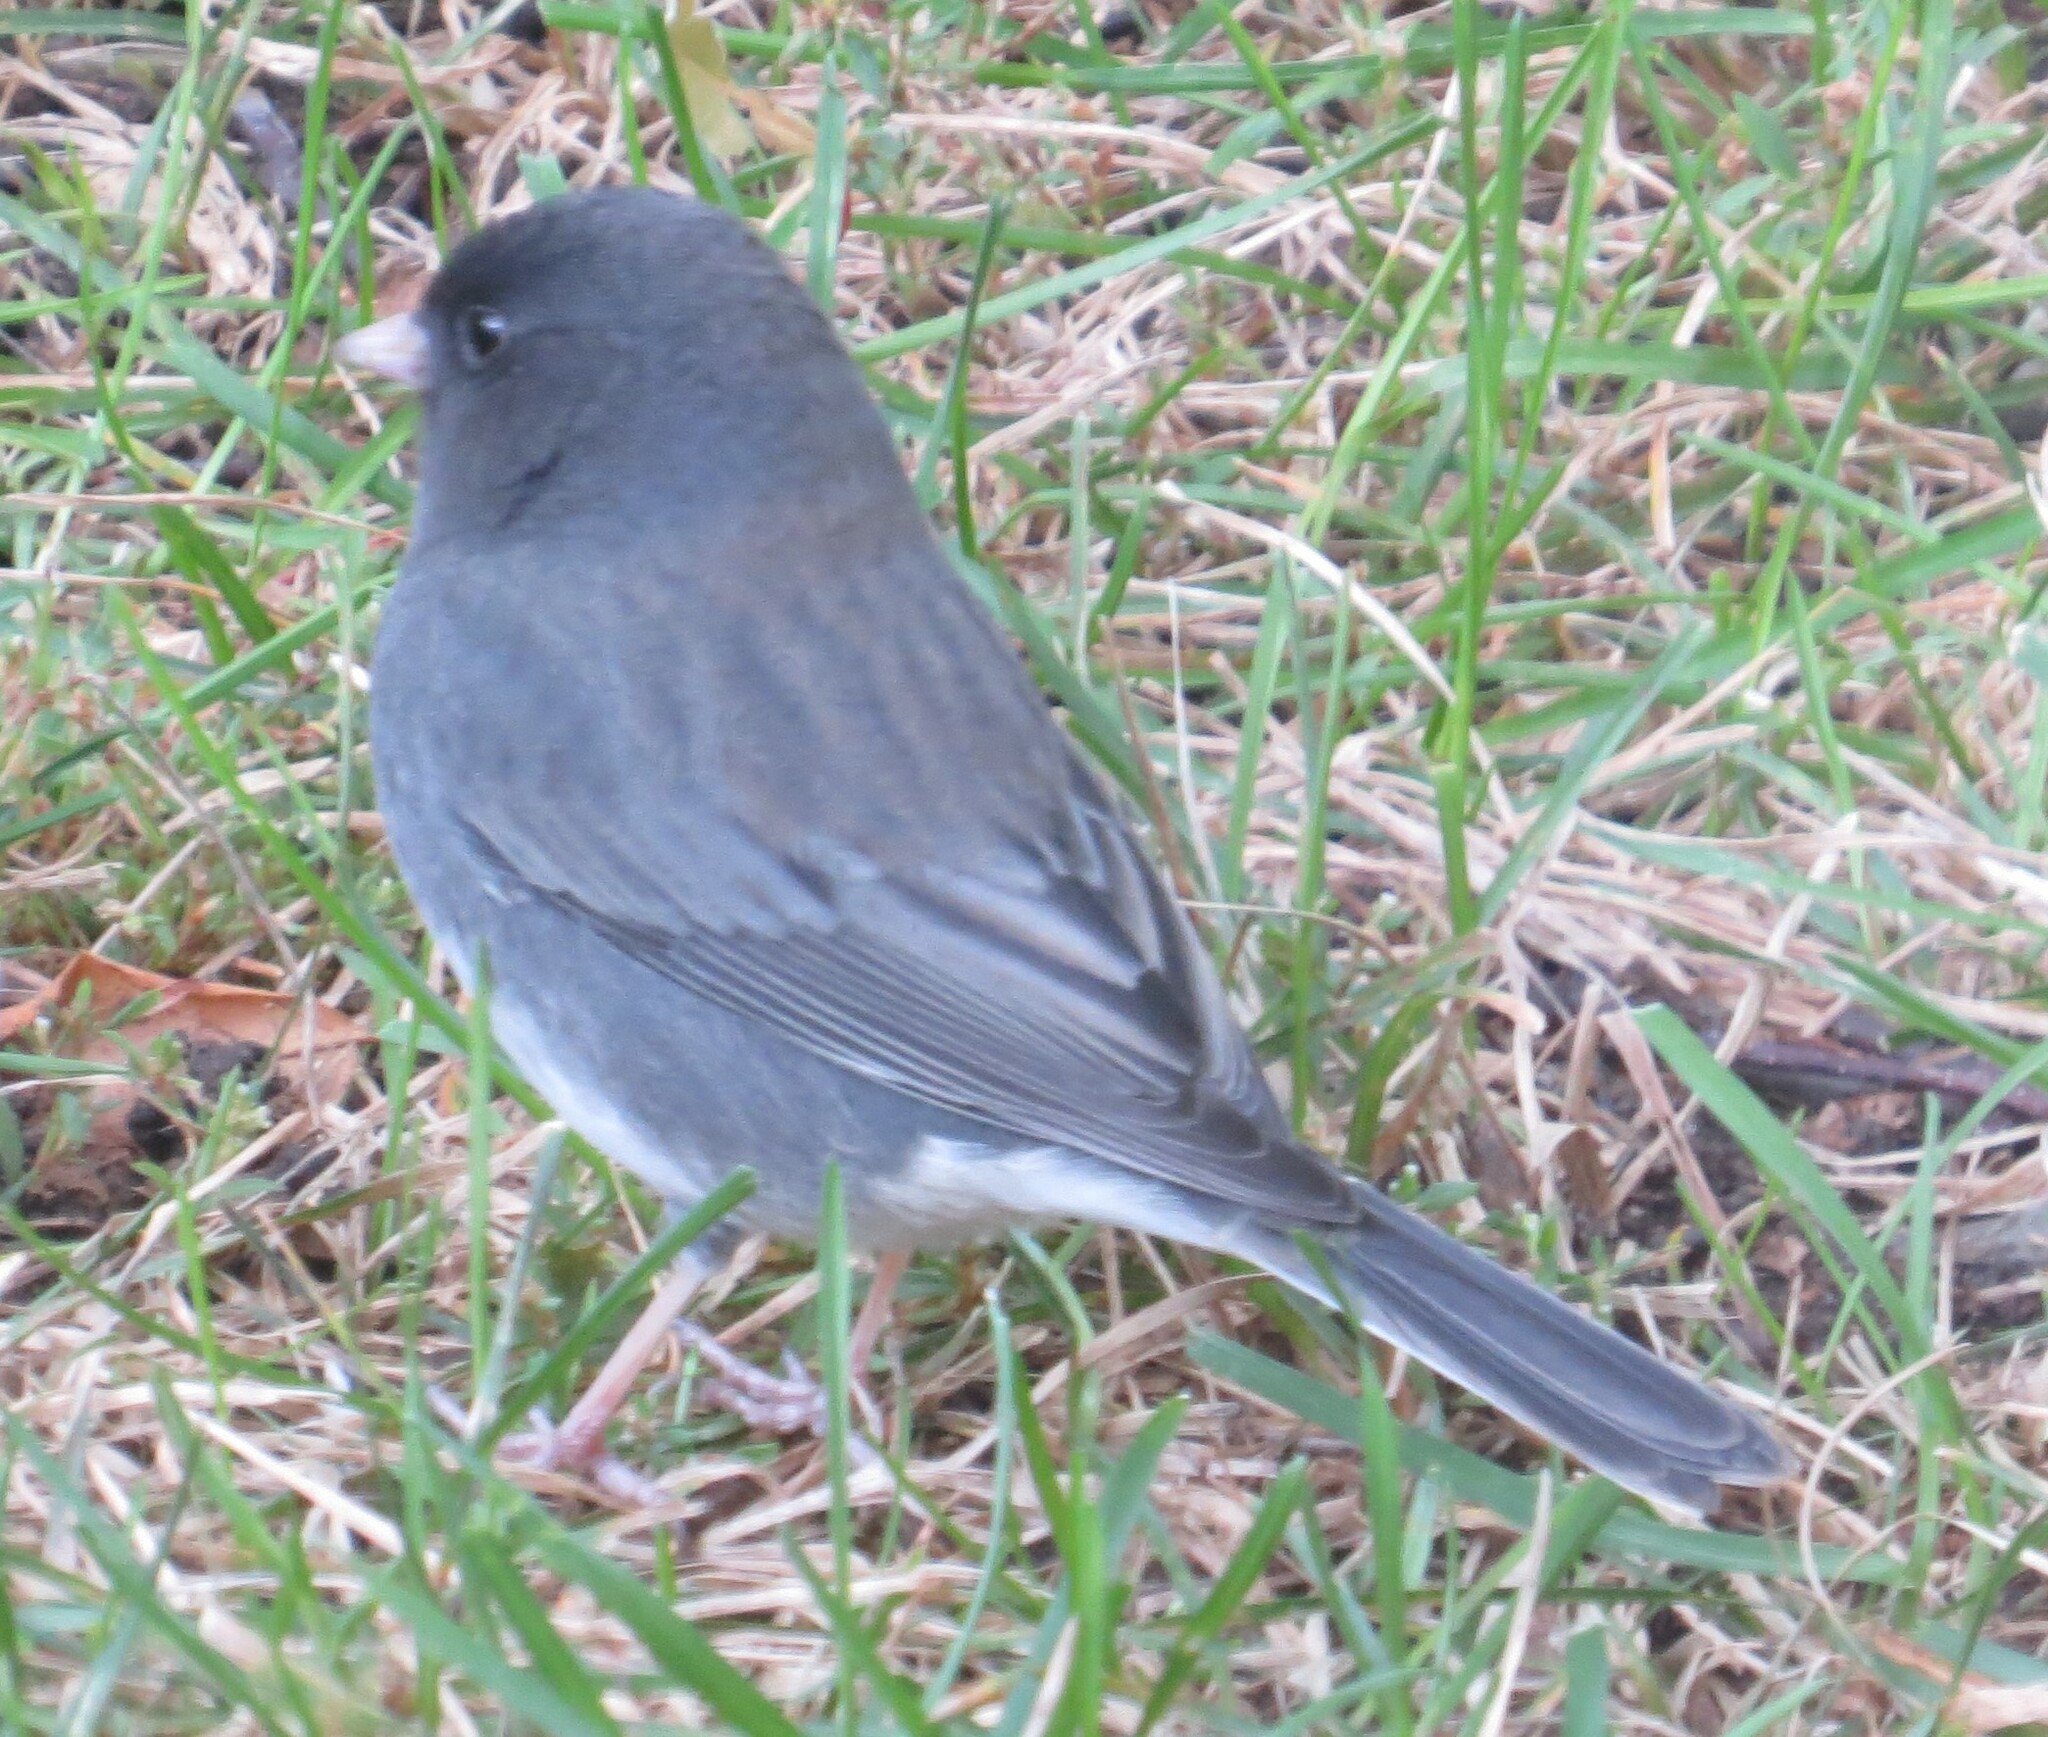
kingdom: Animalia
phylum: Chordata
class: Aves
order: Passeriformes
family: Passerellidae
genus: Junco
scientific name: Junco hyemalis
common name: Dark-eyed junco
